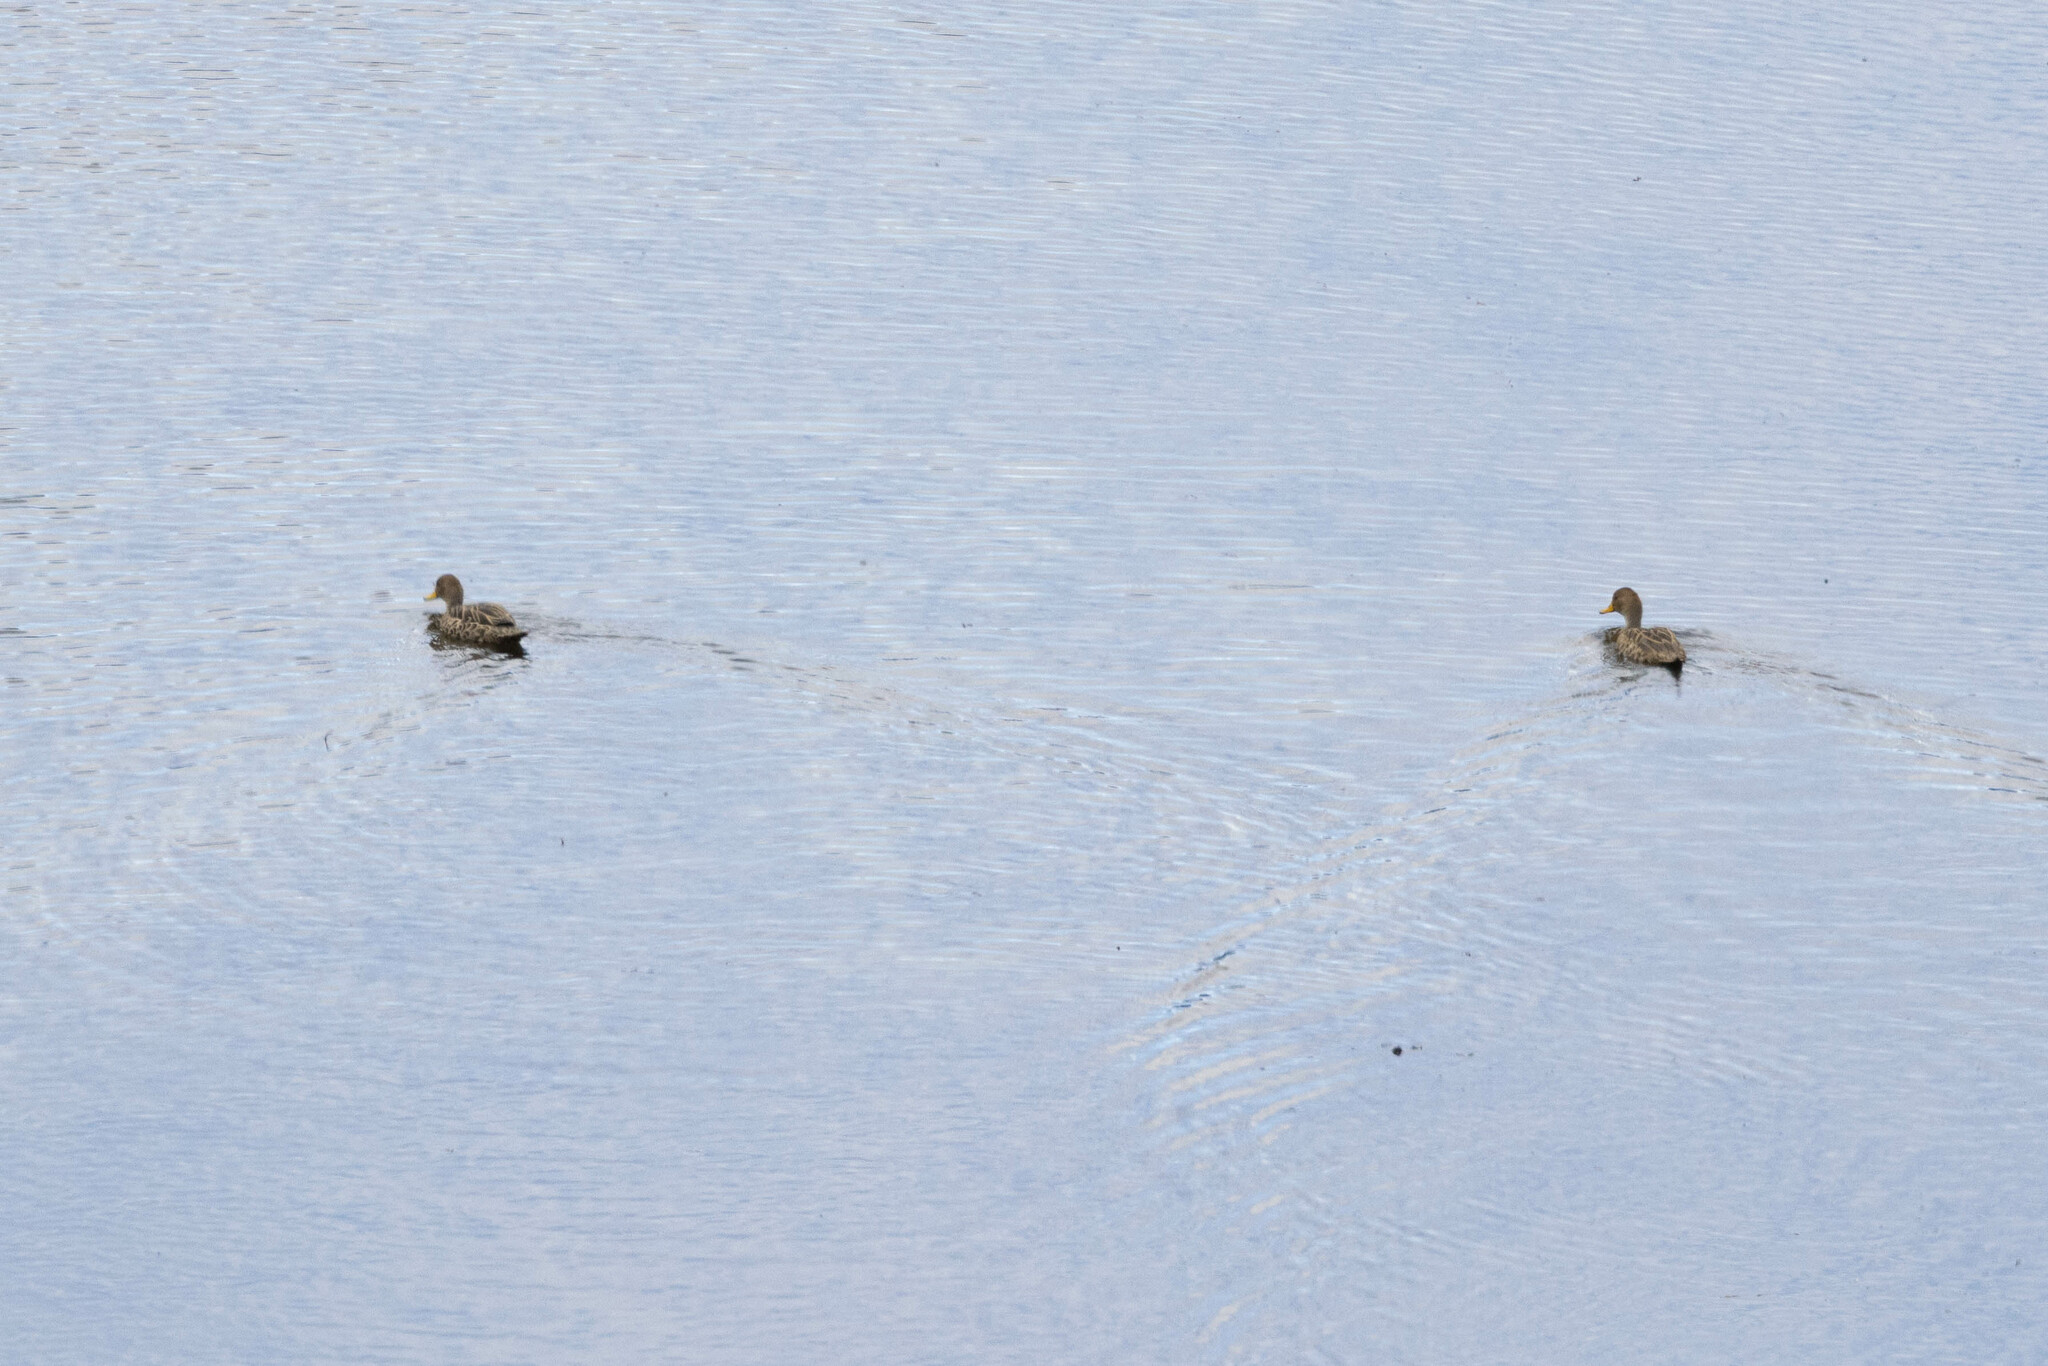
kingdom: Animalia
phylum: Chordata
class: Aves
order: Anseriformes
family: Anatidae
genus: Anas
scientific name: Anas georgica
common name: Yellow-billed pintail
